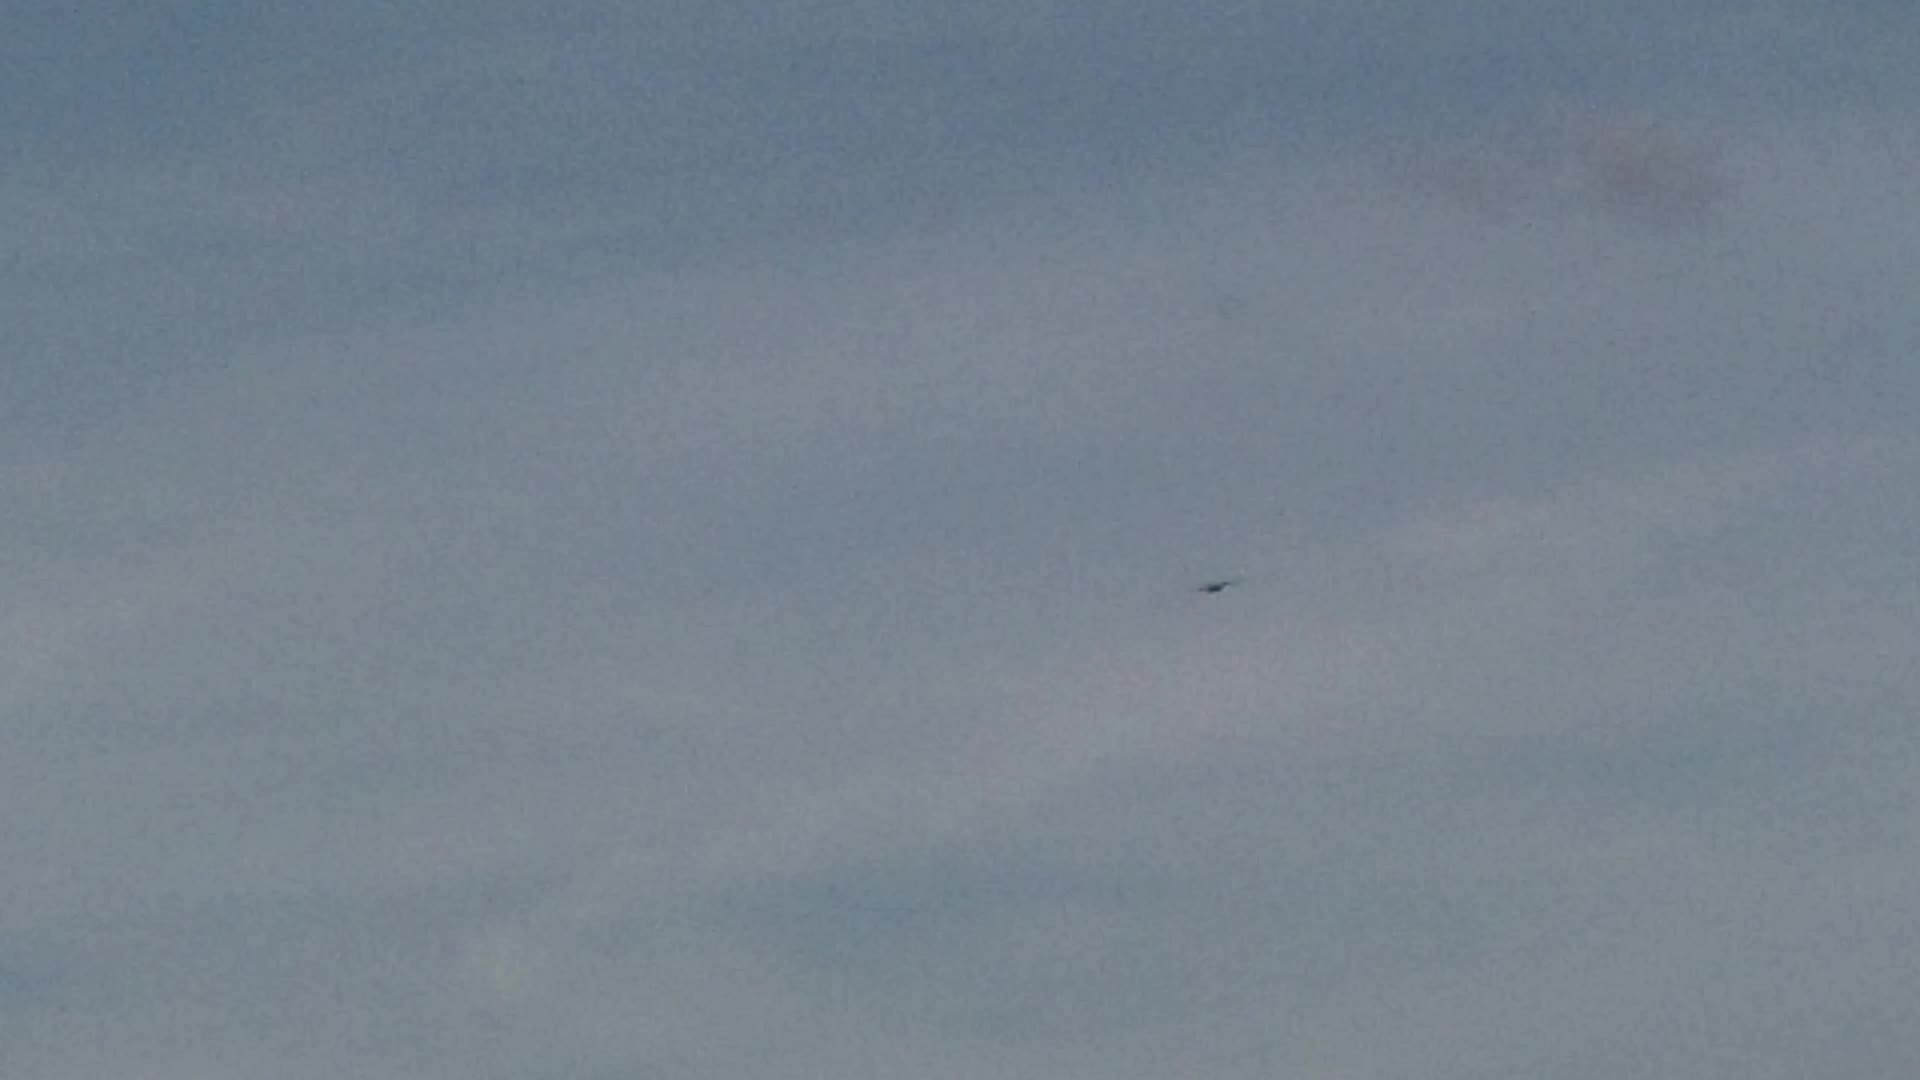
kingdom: Animalia
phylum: Chordata
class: Aves
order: Falconiformes
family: Falconidae
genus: Falco
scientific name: Falco tinnunculus
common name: Common kestrel
